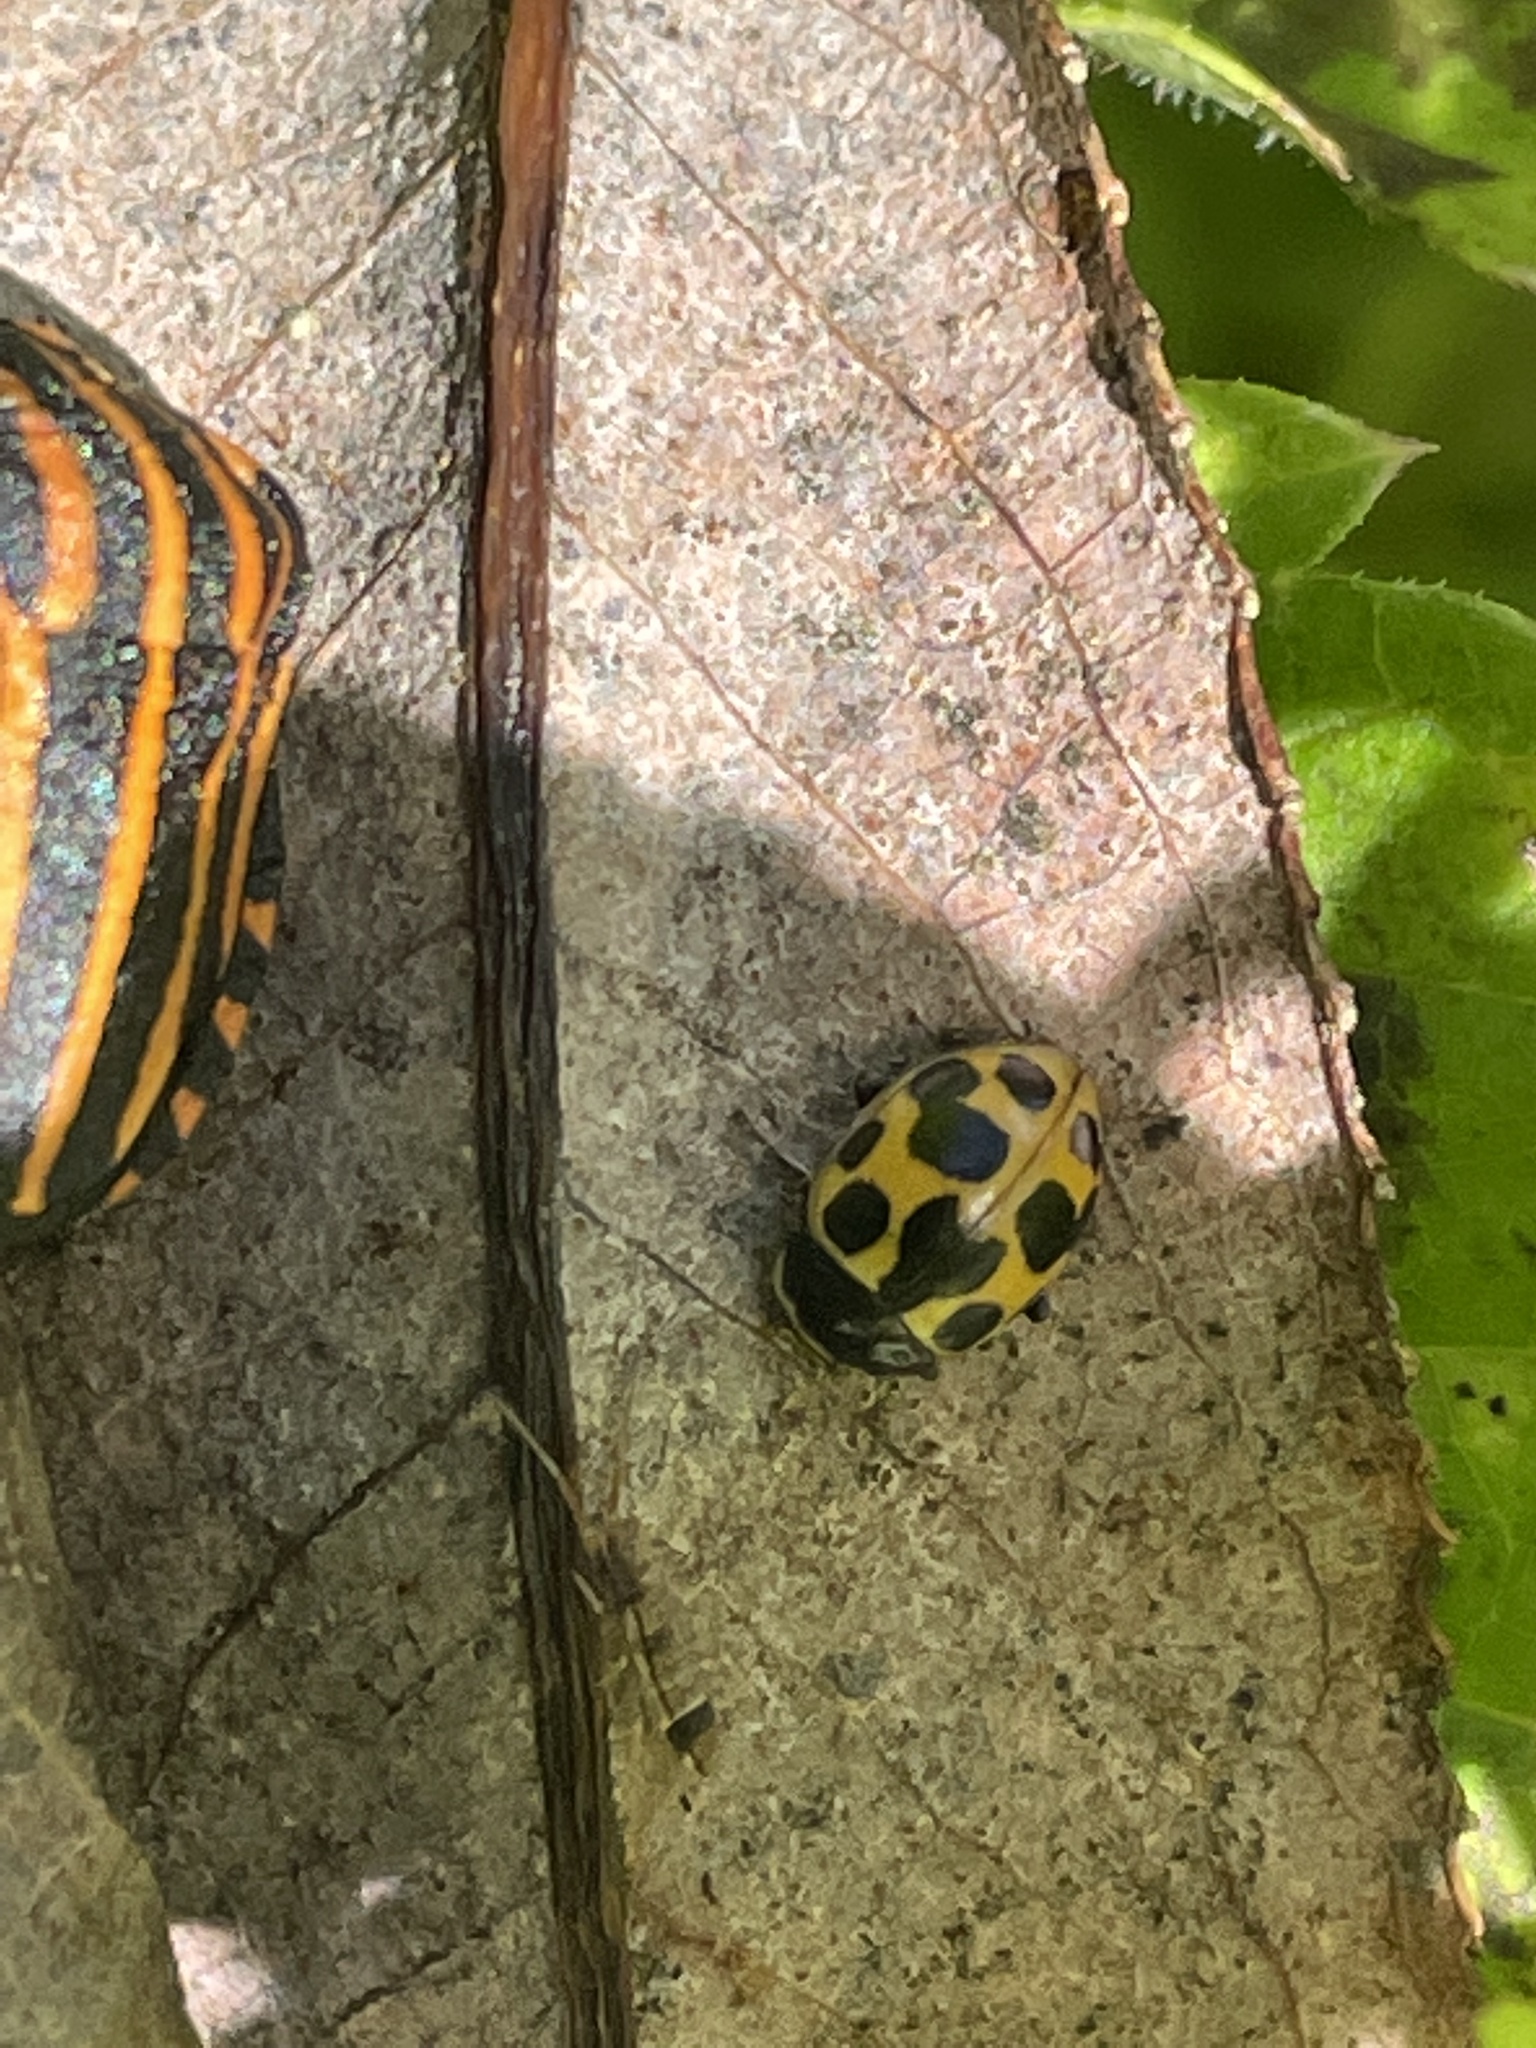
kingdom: Animalia
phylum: Arthropoda
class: Insecta
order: Coleoptera
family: Coccinellidae
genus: Ceratomegilla
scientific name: Ceratomegilla notata
